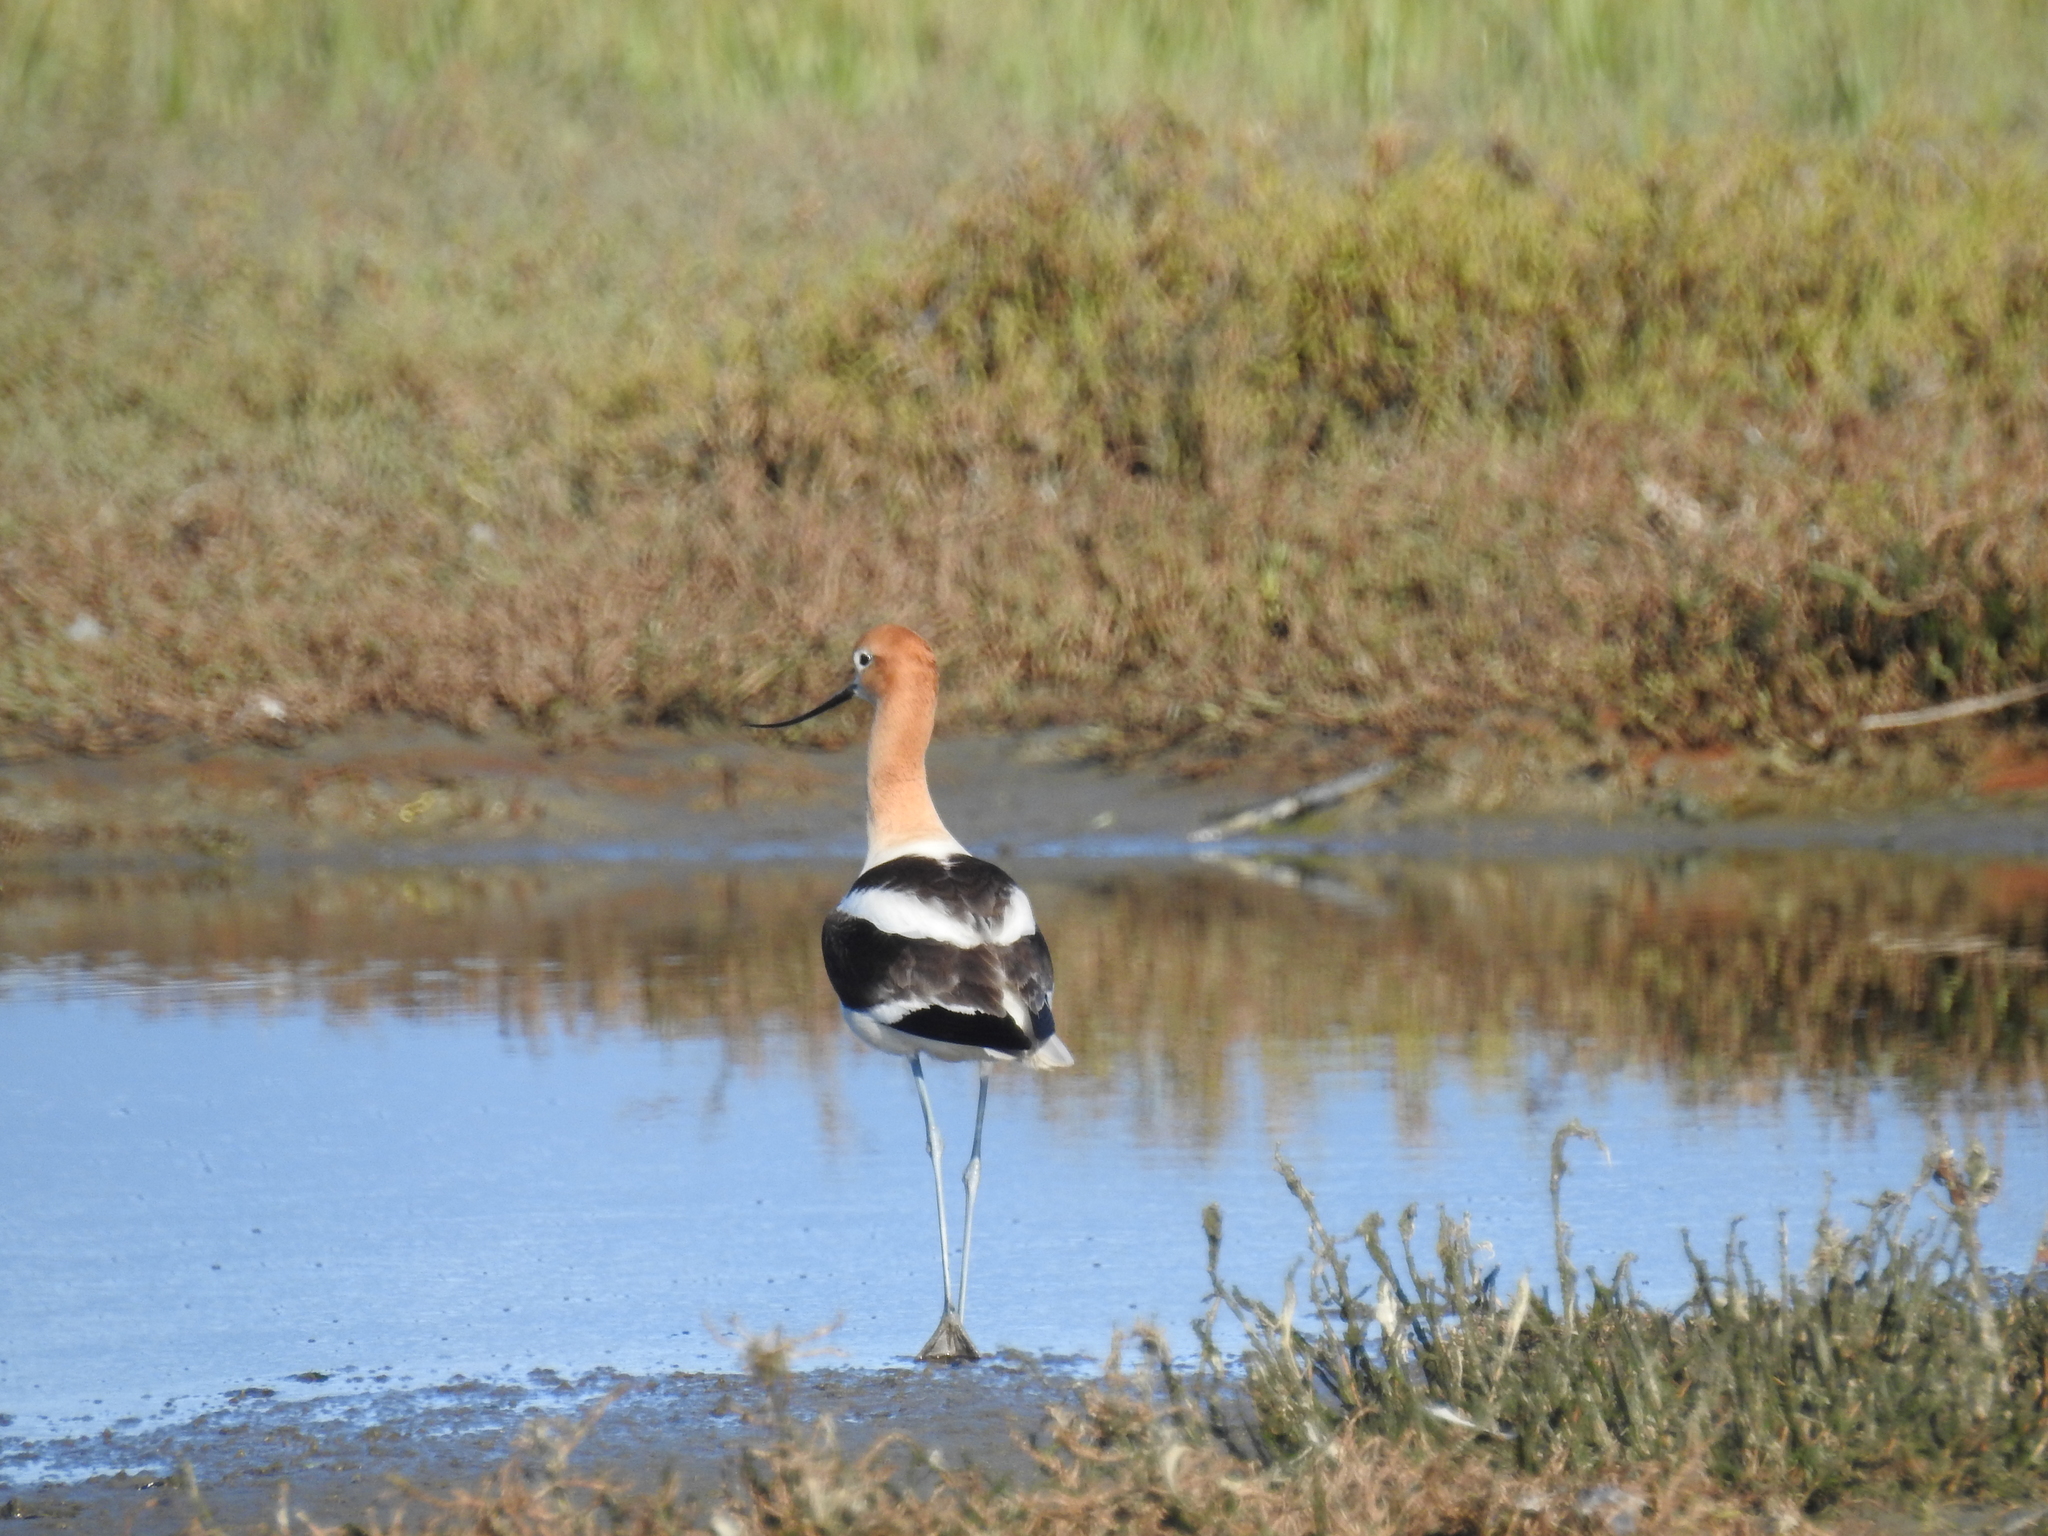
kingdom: Animalia
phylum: Chordata
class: Aves
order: Charadriiformes
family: Recurvirostridae
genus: Recurvirostra
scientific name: Recurvirostra americana
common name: American avocet
